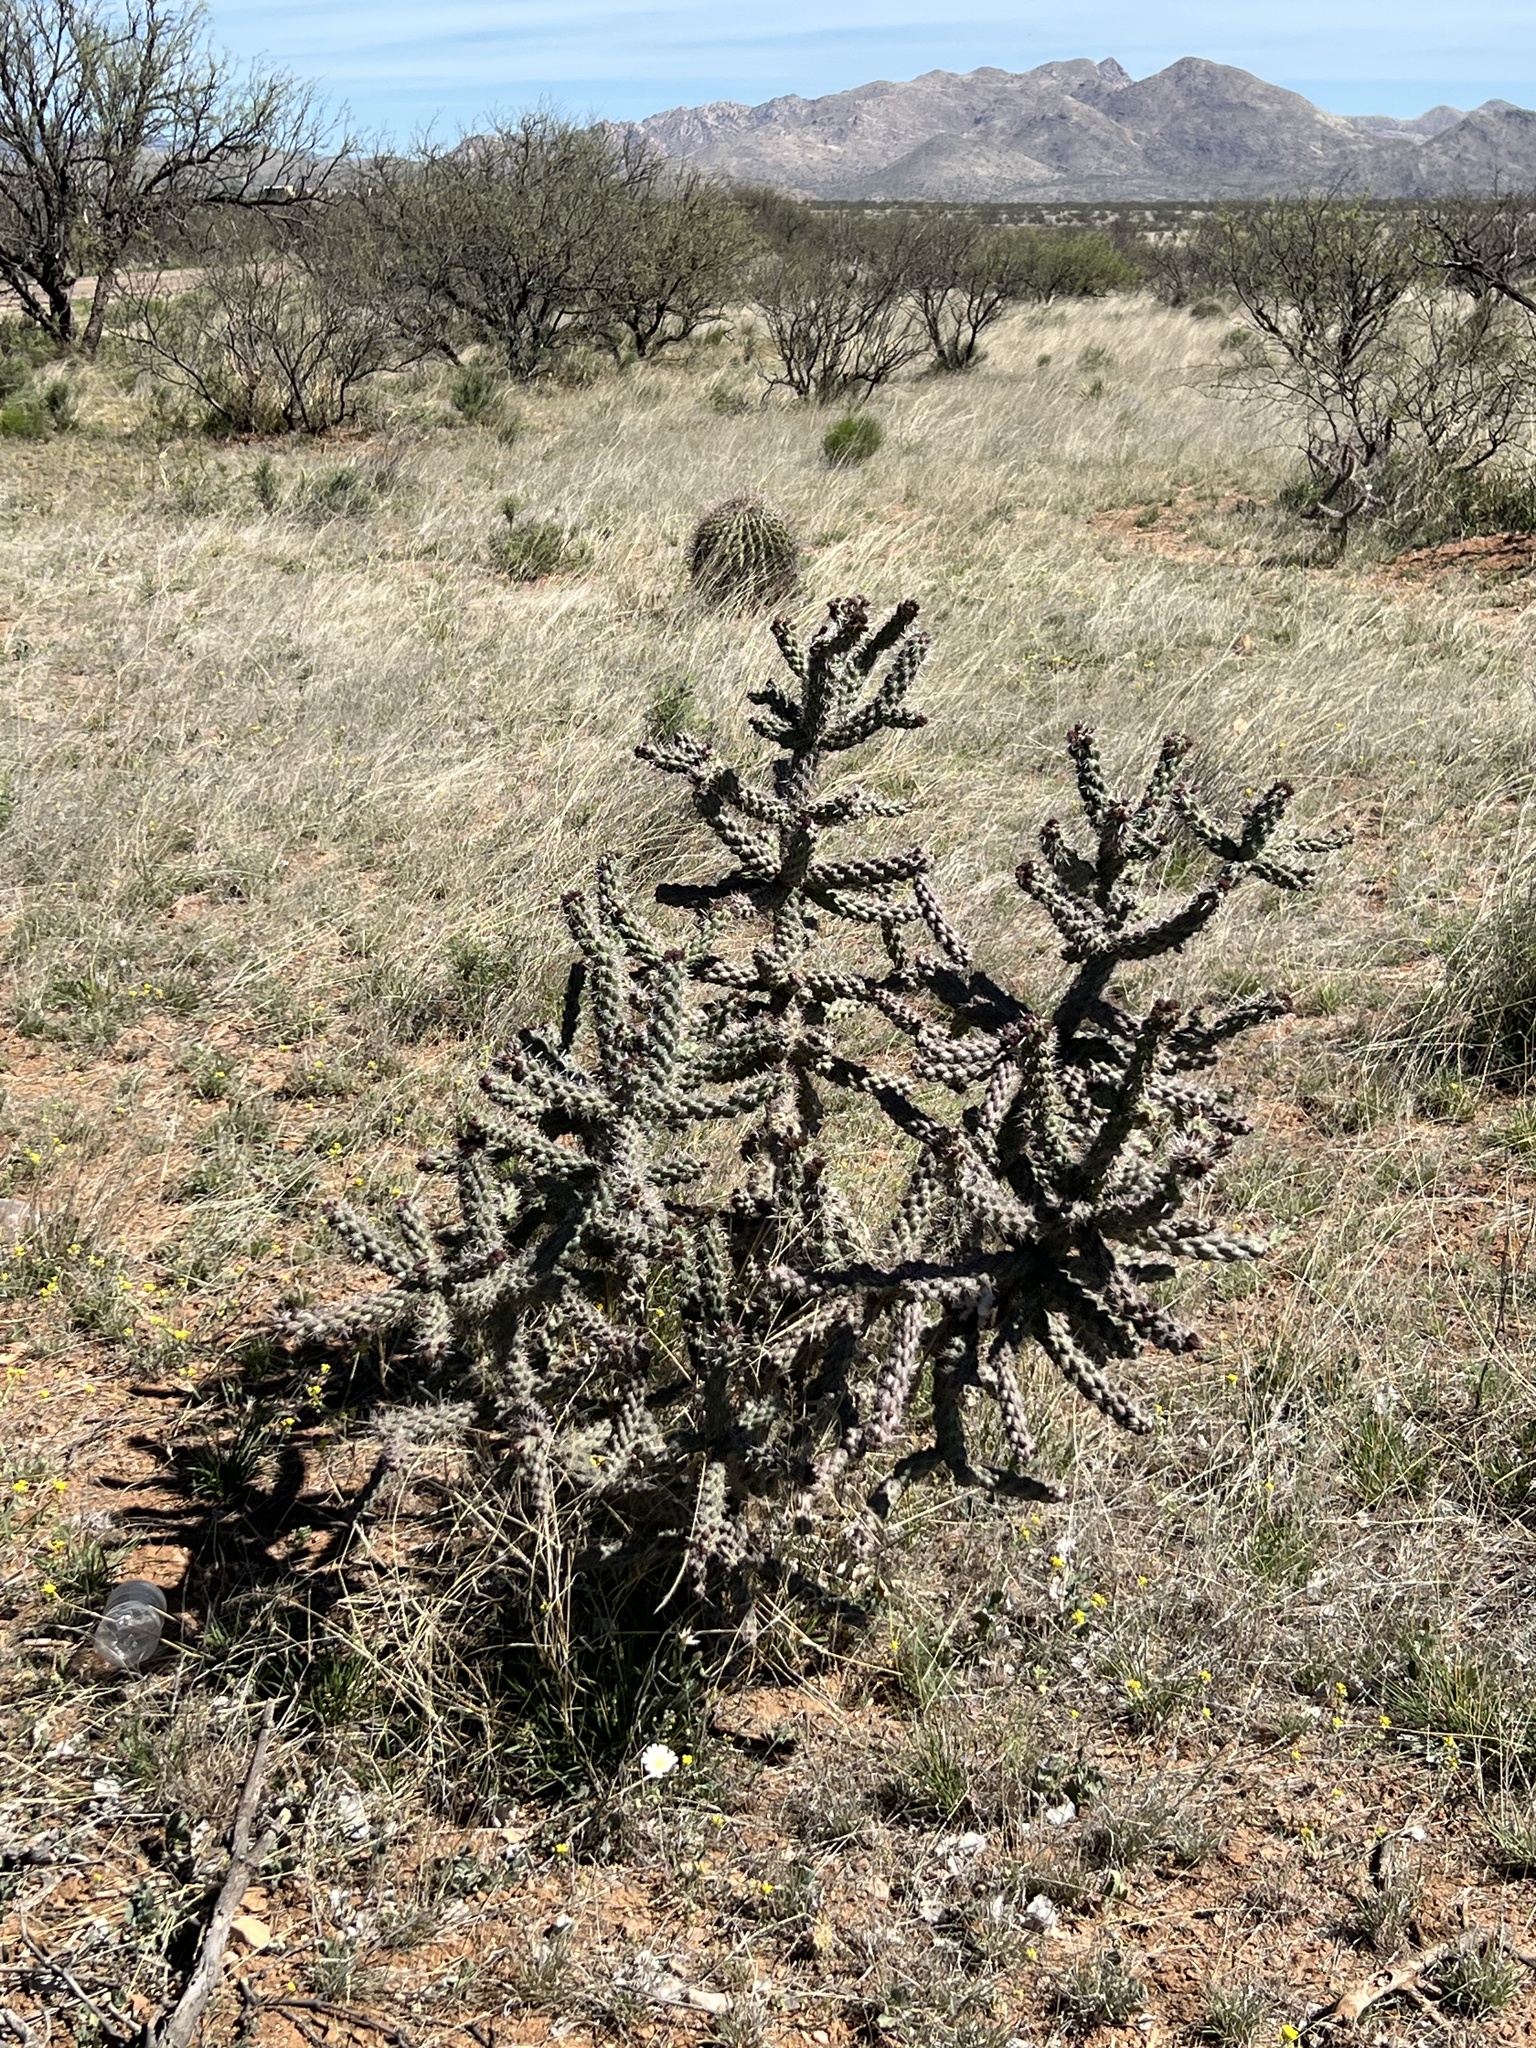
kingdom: Plantae
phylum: Tracheophyta
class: Magnoliopsida
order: Caryophyllales
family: Cactaceae
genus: Cylindropuntia
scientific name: Cylindropuntia imbricata
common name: Candelabrum cactus
